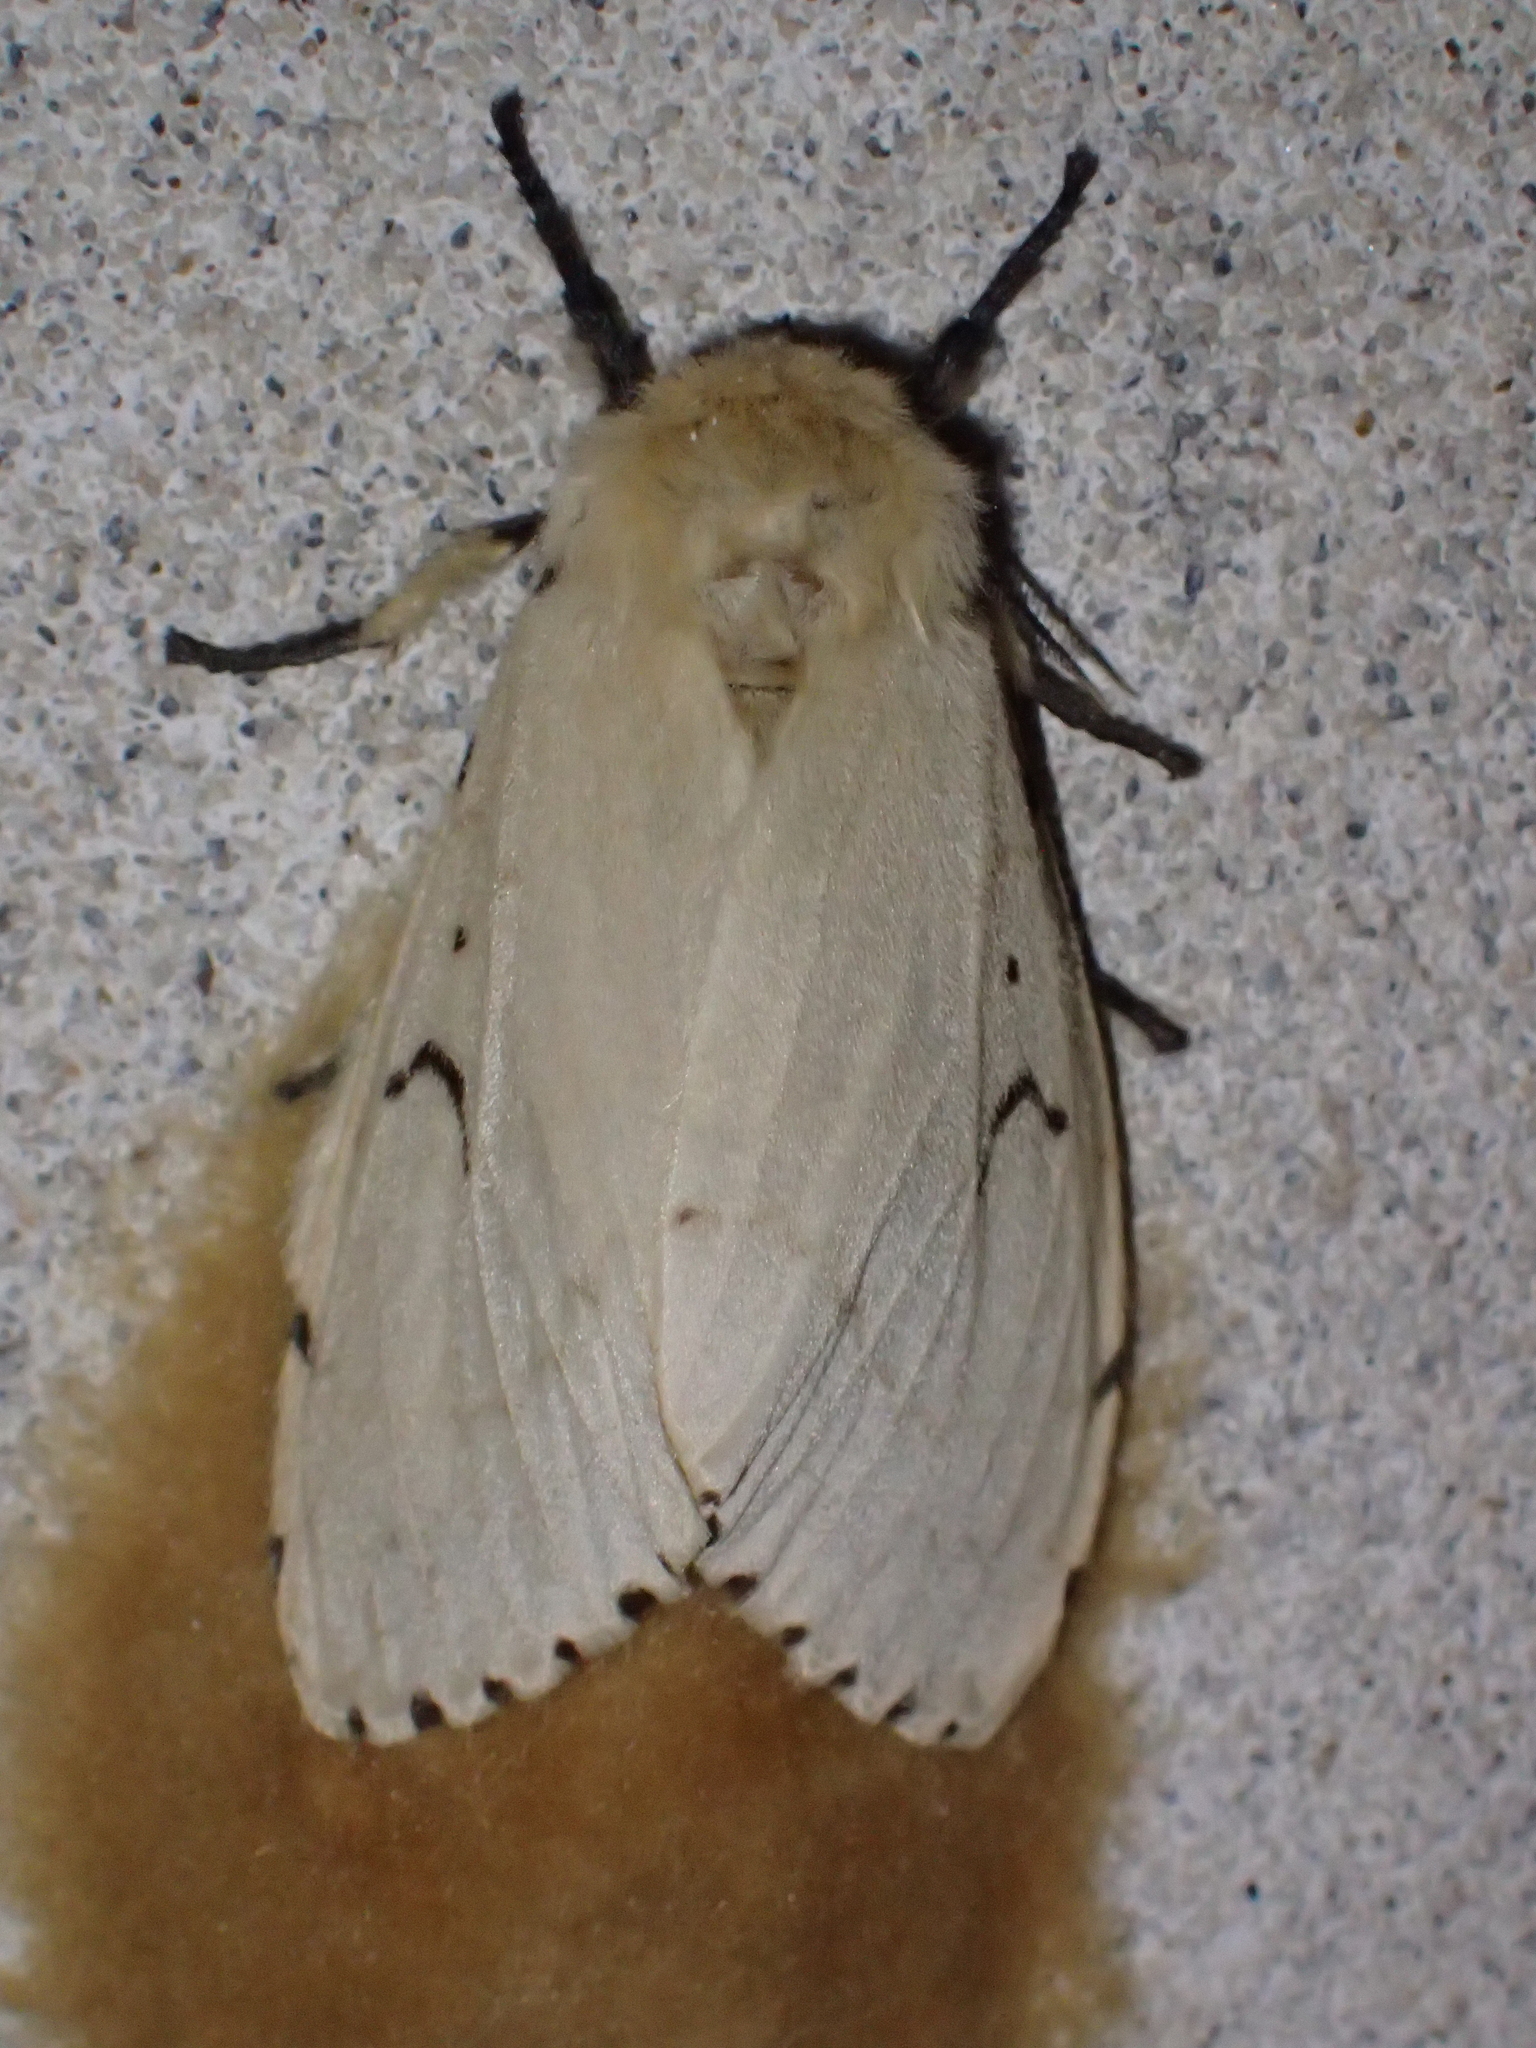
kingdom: Animalia
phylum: Arthropoda
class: Insecta
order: Lepidoptera
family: Erebidae
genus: Lymantria
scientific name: Lymantria dispar
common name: Gypsy moth
